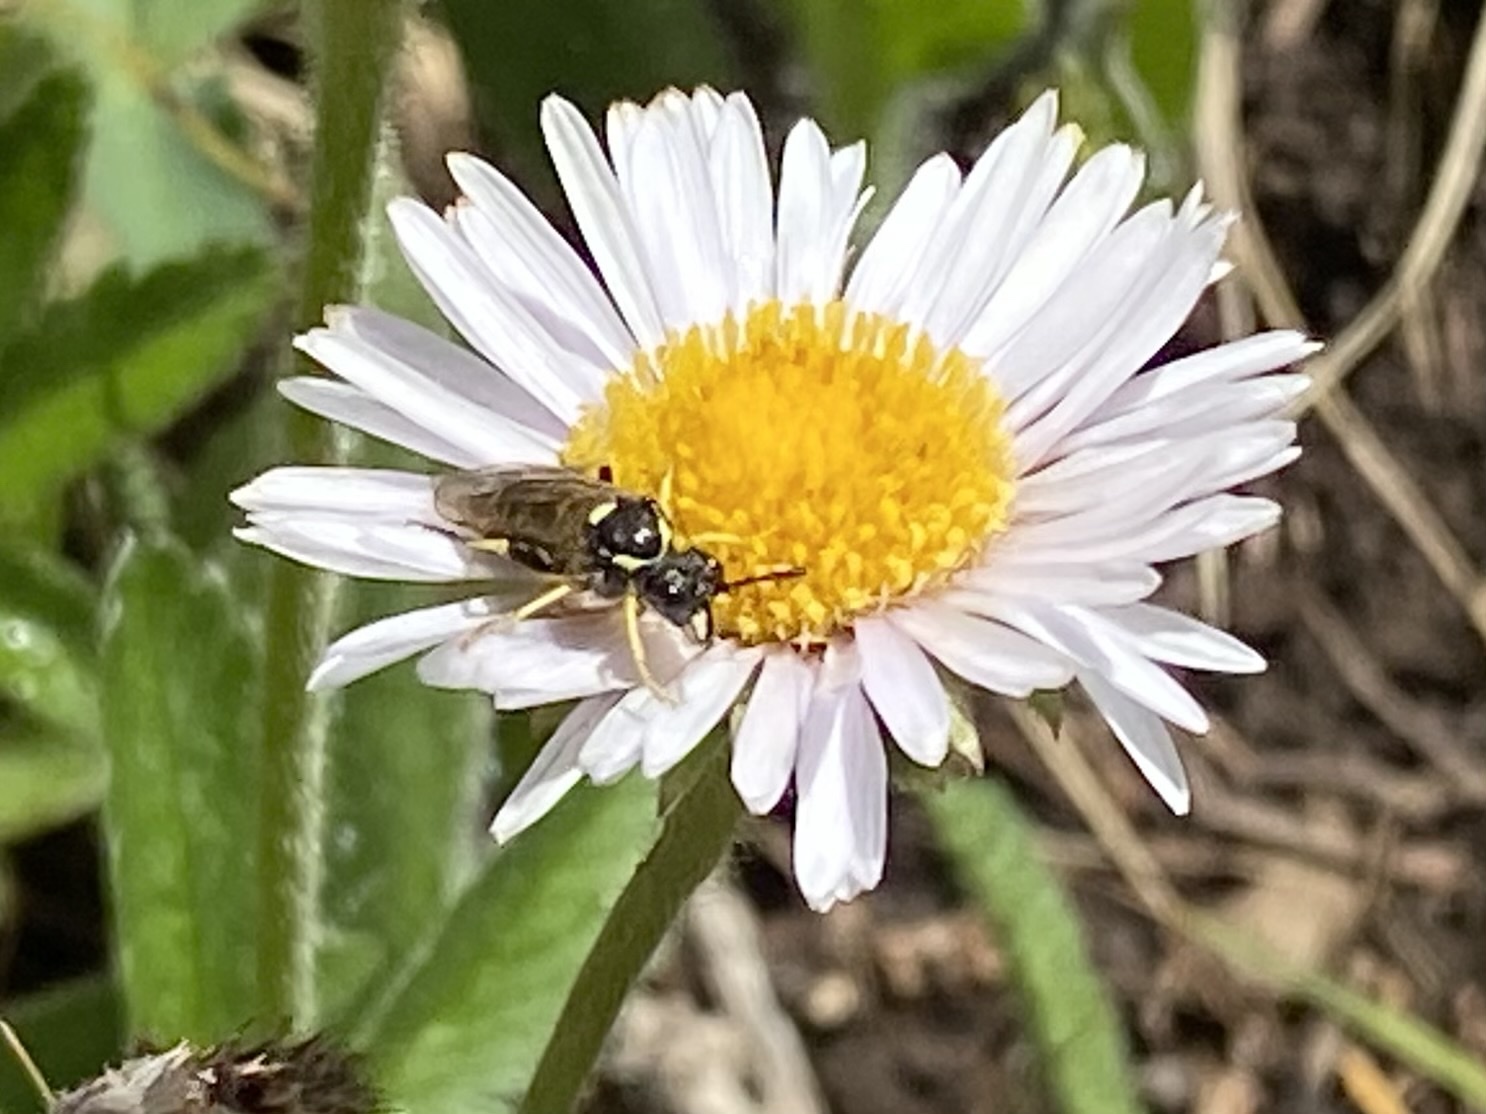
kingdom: Animalia
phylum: Arthropoda
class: Insecta
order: Hymenoptera
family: Tenthredinidae
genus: Tenthredo
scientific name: Tenthredo
